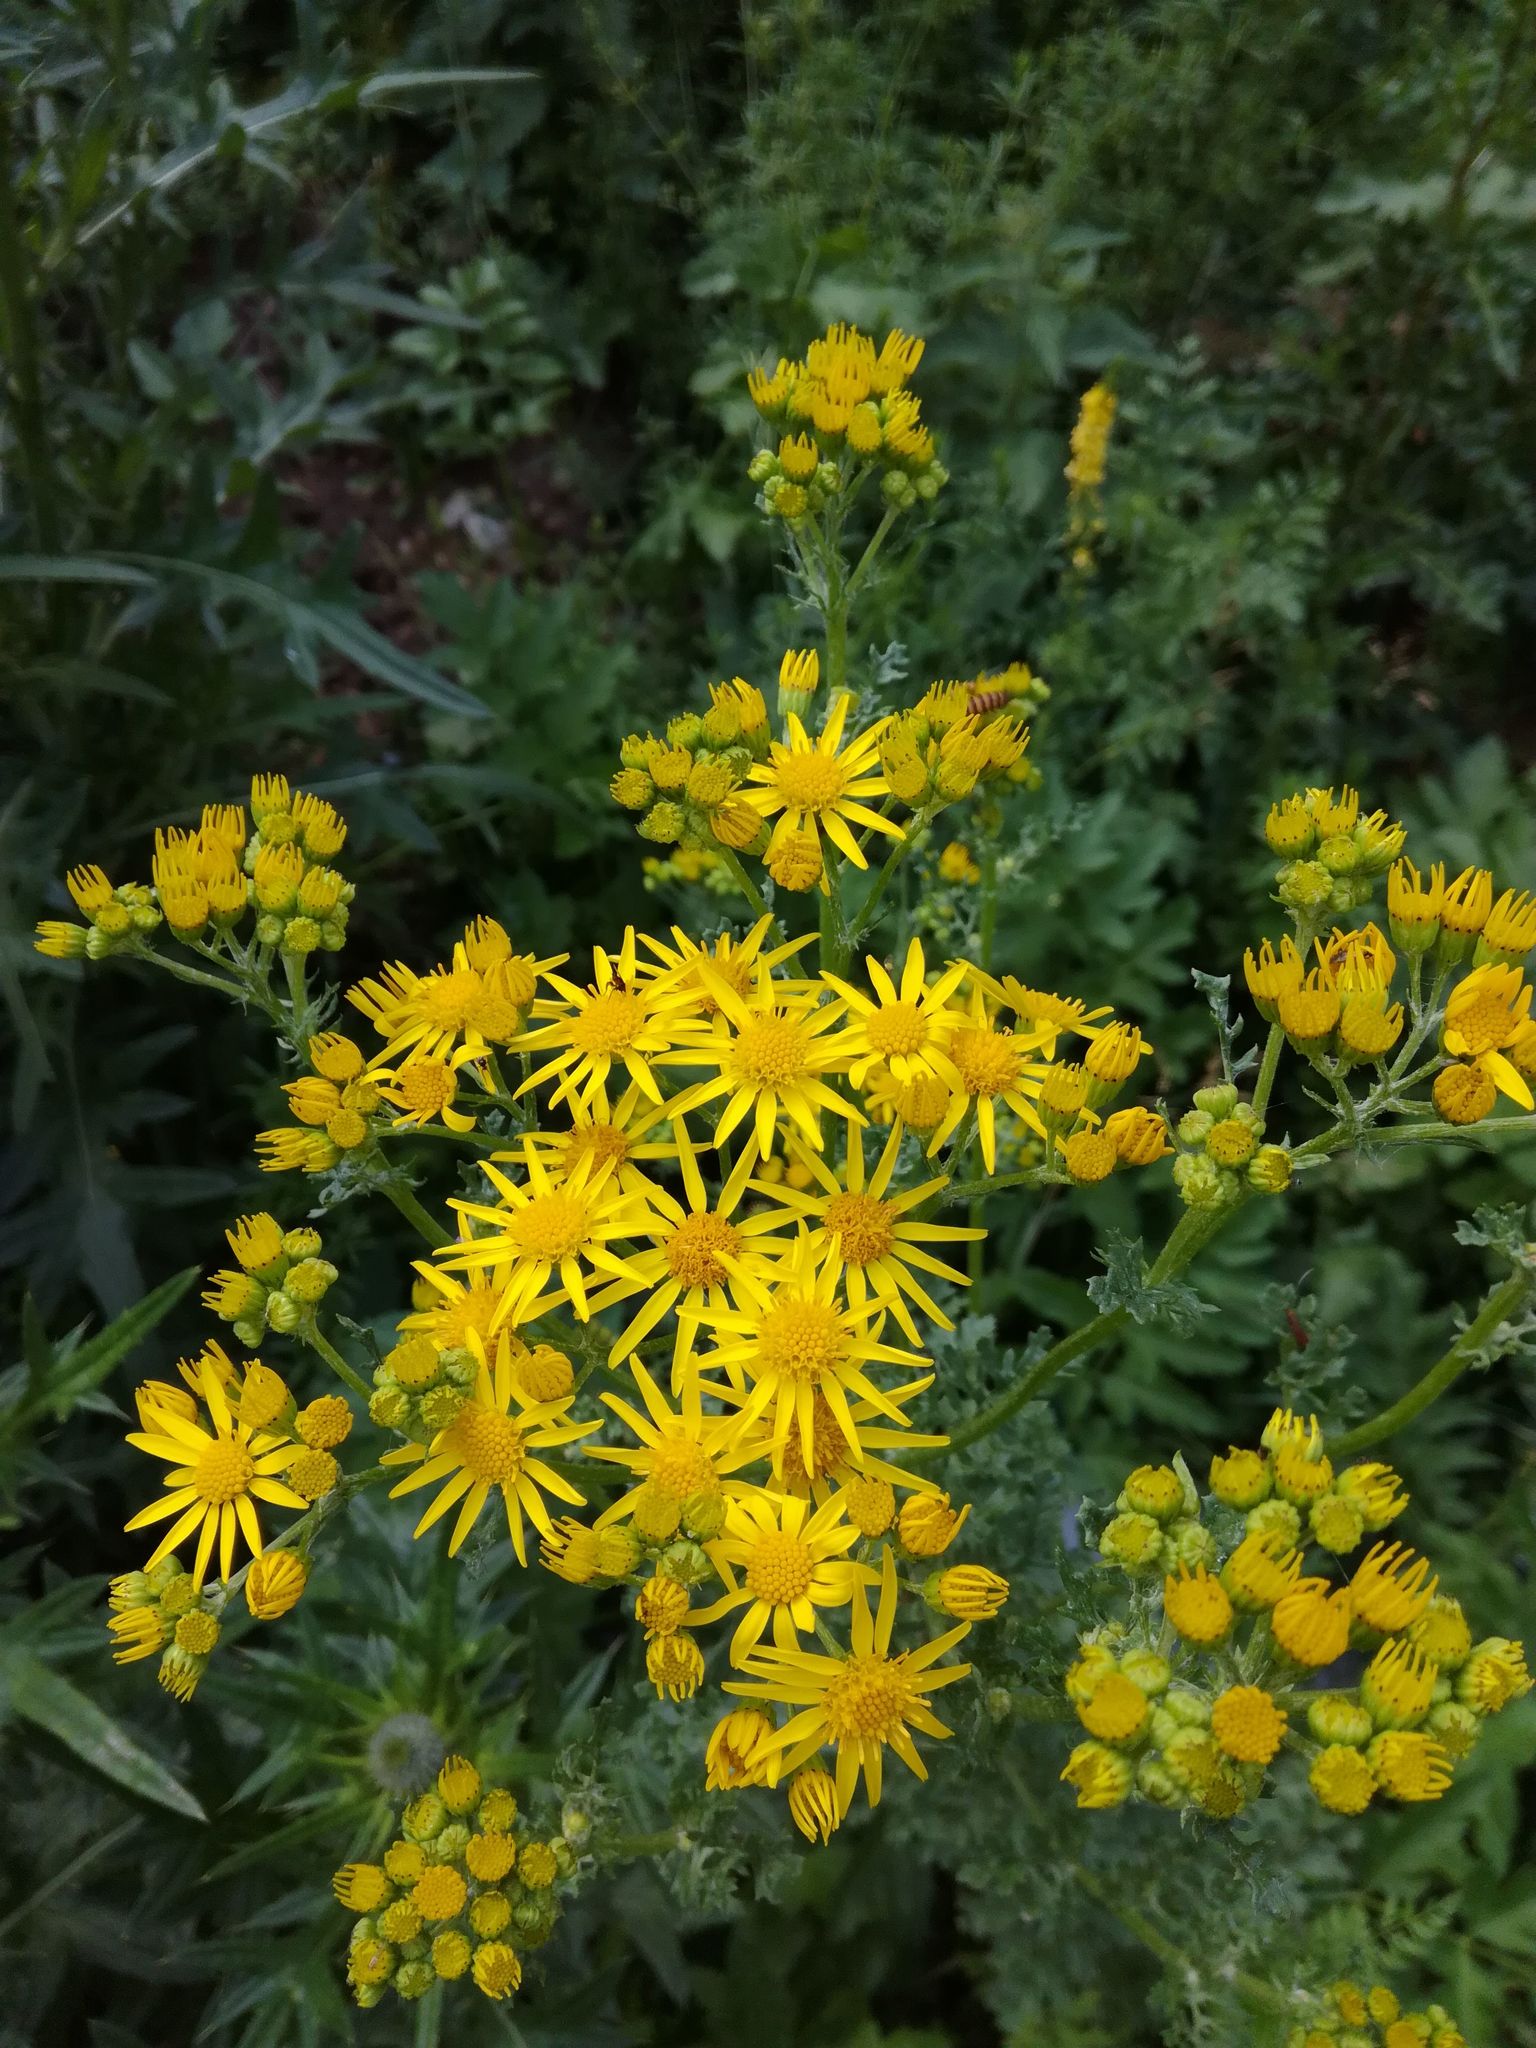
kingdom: Plantae
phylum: Tracheophyta
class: Magnoliopsida
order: Asterales
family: Asteraceae
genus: Jacobaea
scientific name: Jacobaea vulgaris
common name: Stinking willie
